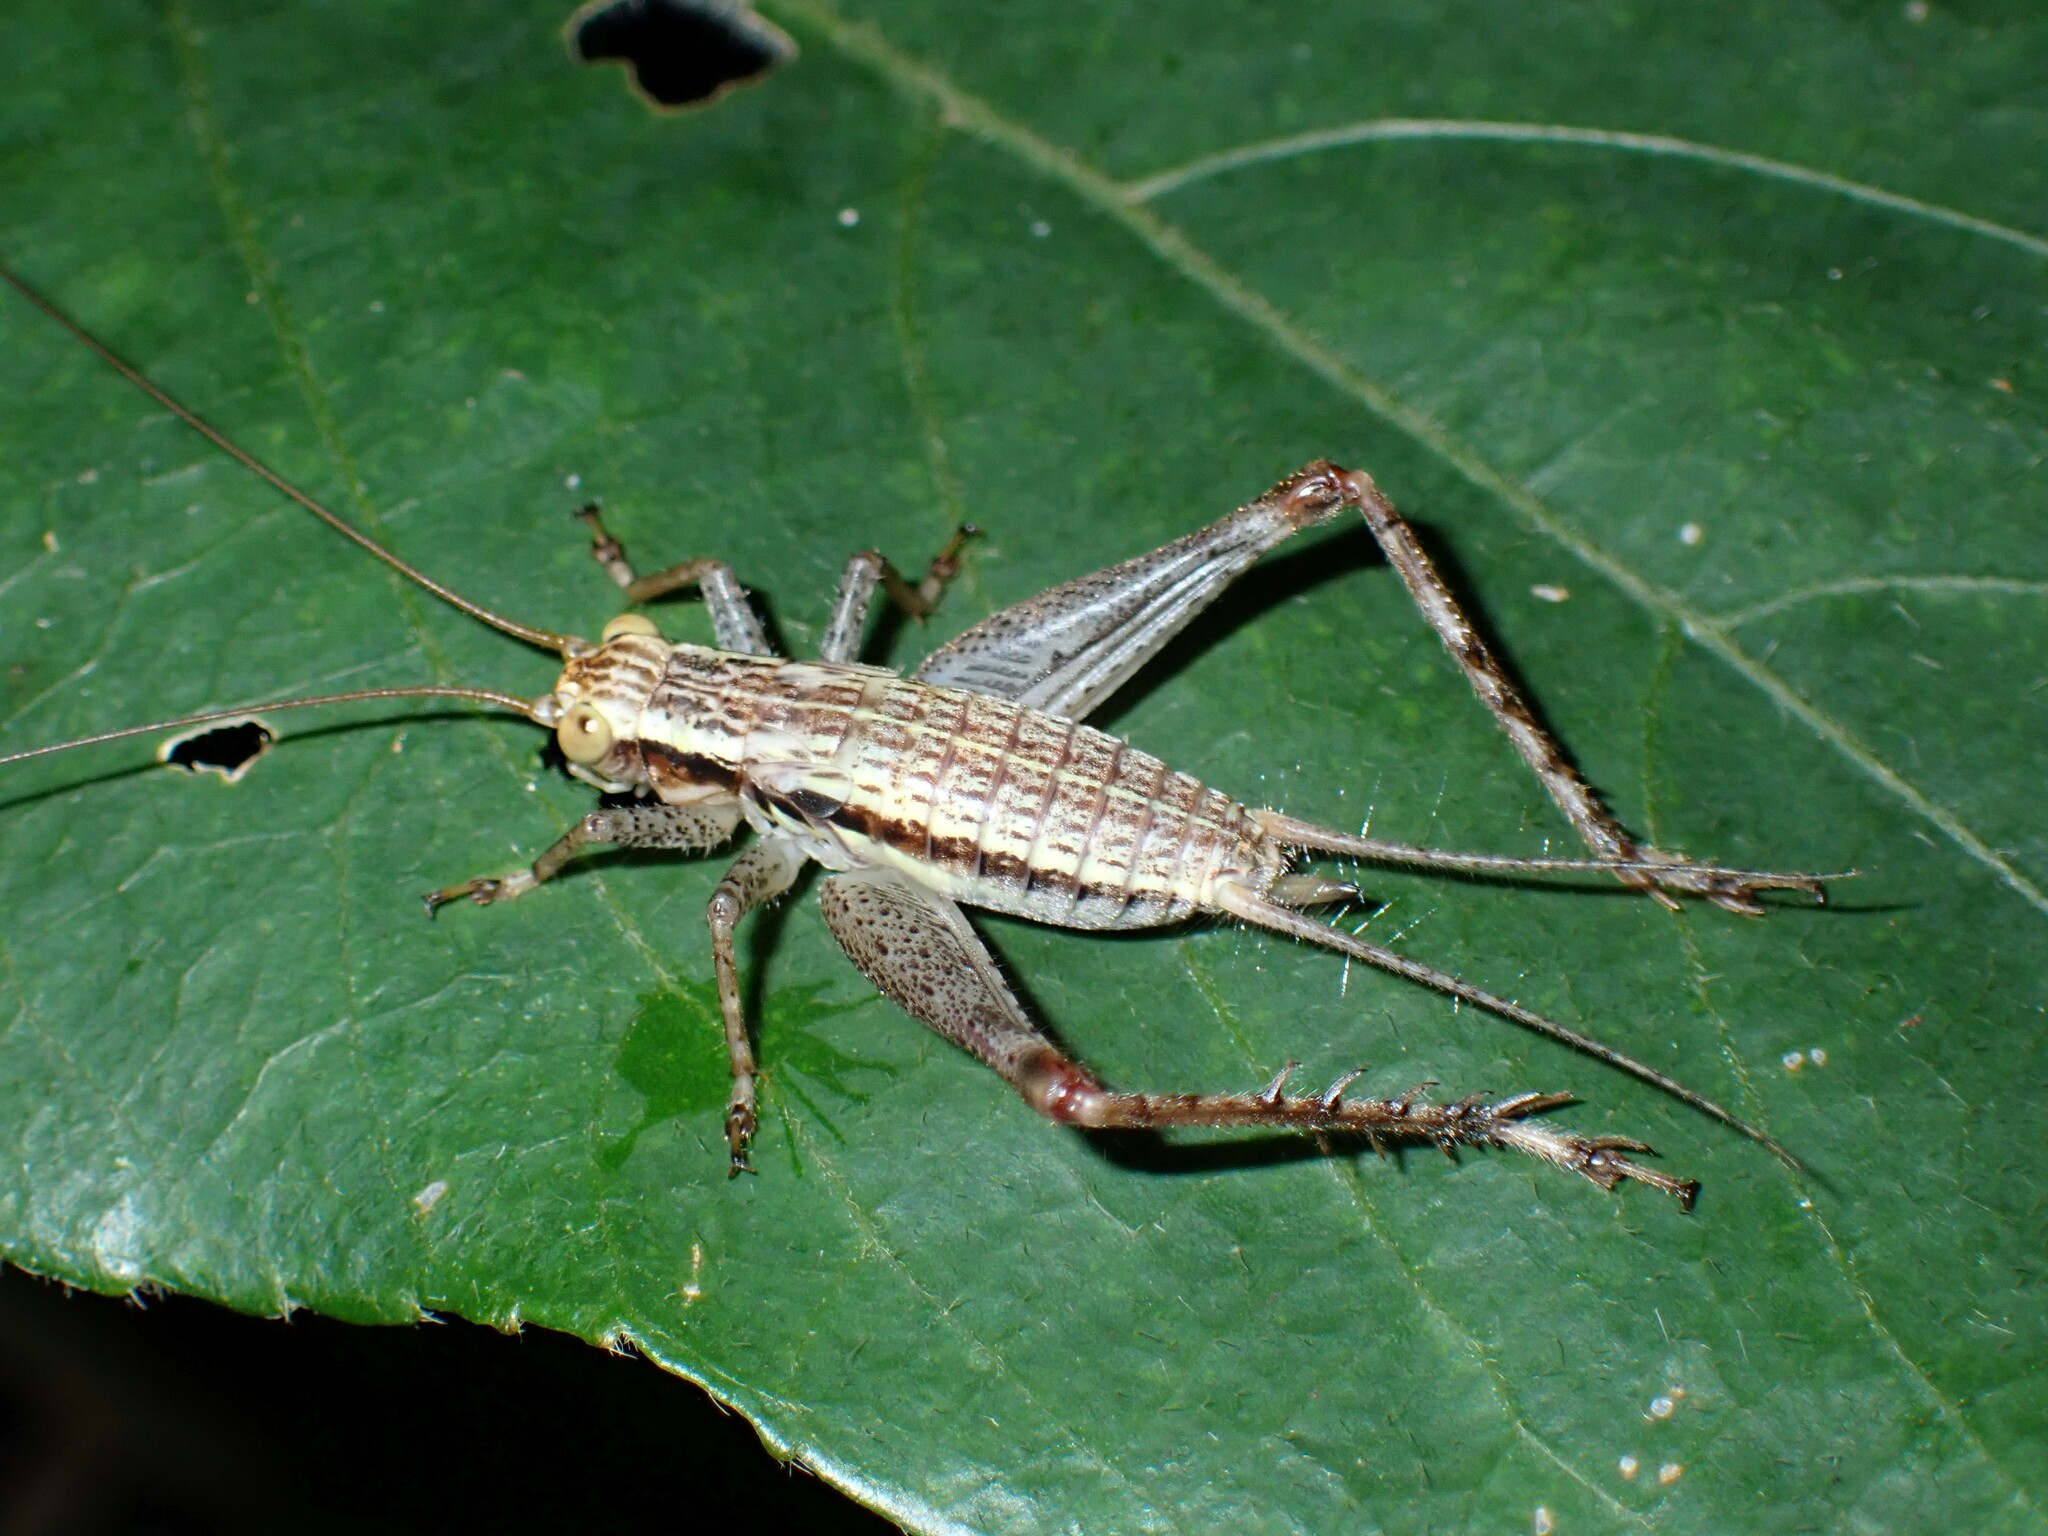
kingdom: Animalia
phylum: Arthropoda
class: Insecta
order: Orthoptera
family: Gryllidae
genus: Cardiodactylus
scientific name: Cardiodactylus novaeguineae
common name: Sad cricket
